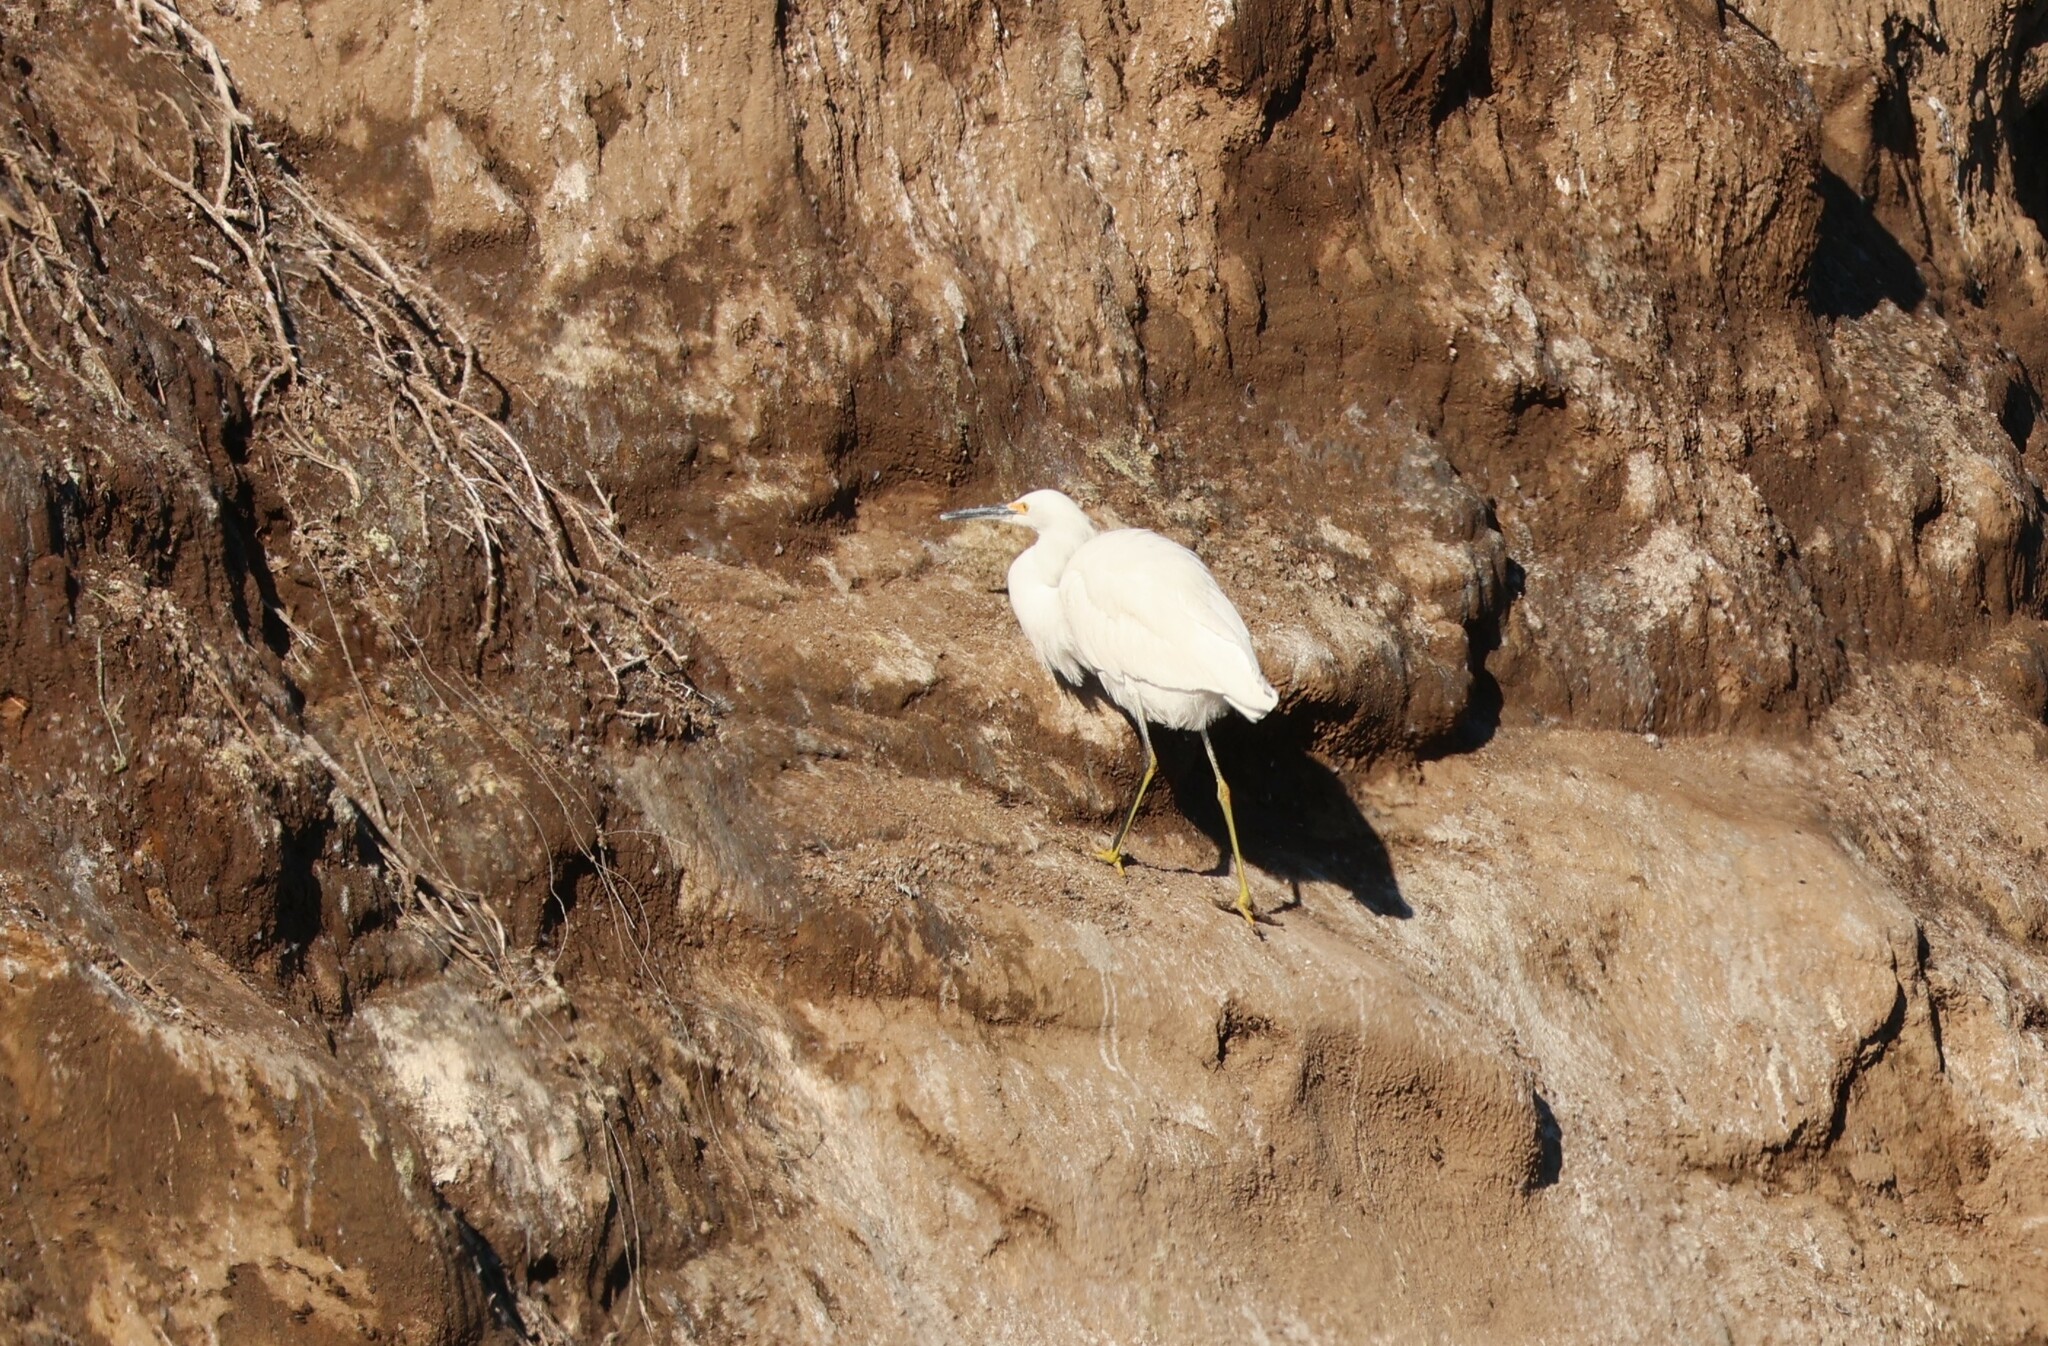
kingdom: Animalia
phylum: Chordata
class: Aves
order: Pelecaniformes
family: Ardeidae
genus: Egretta
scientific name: Egretta thula
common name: Snowy egret
